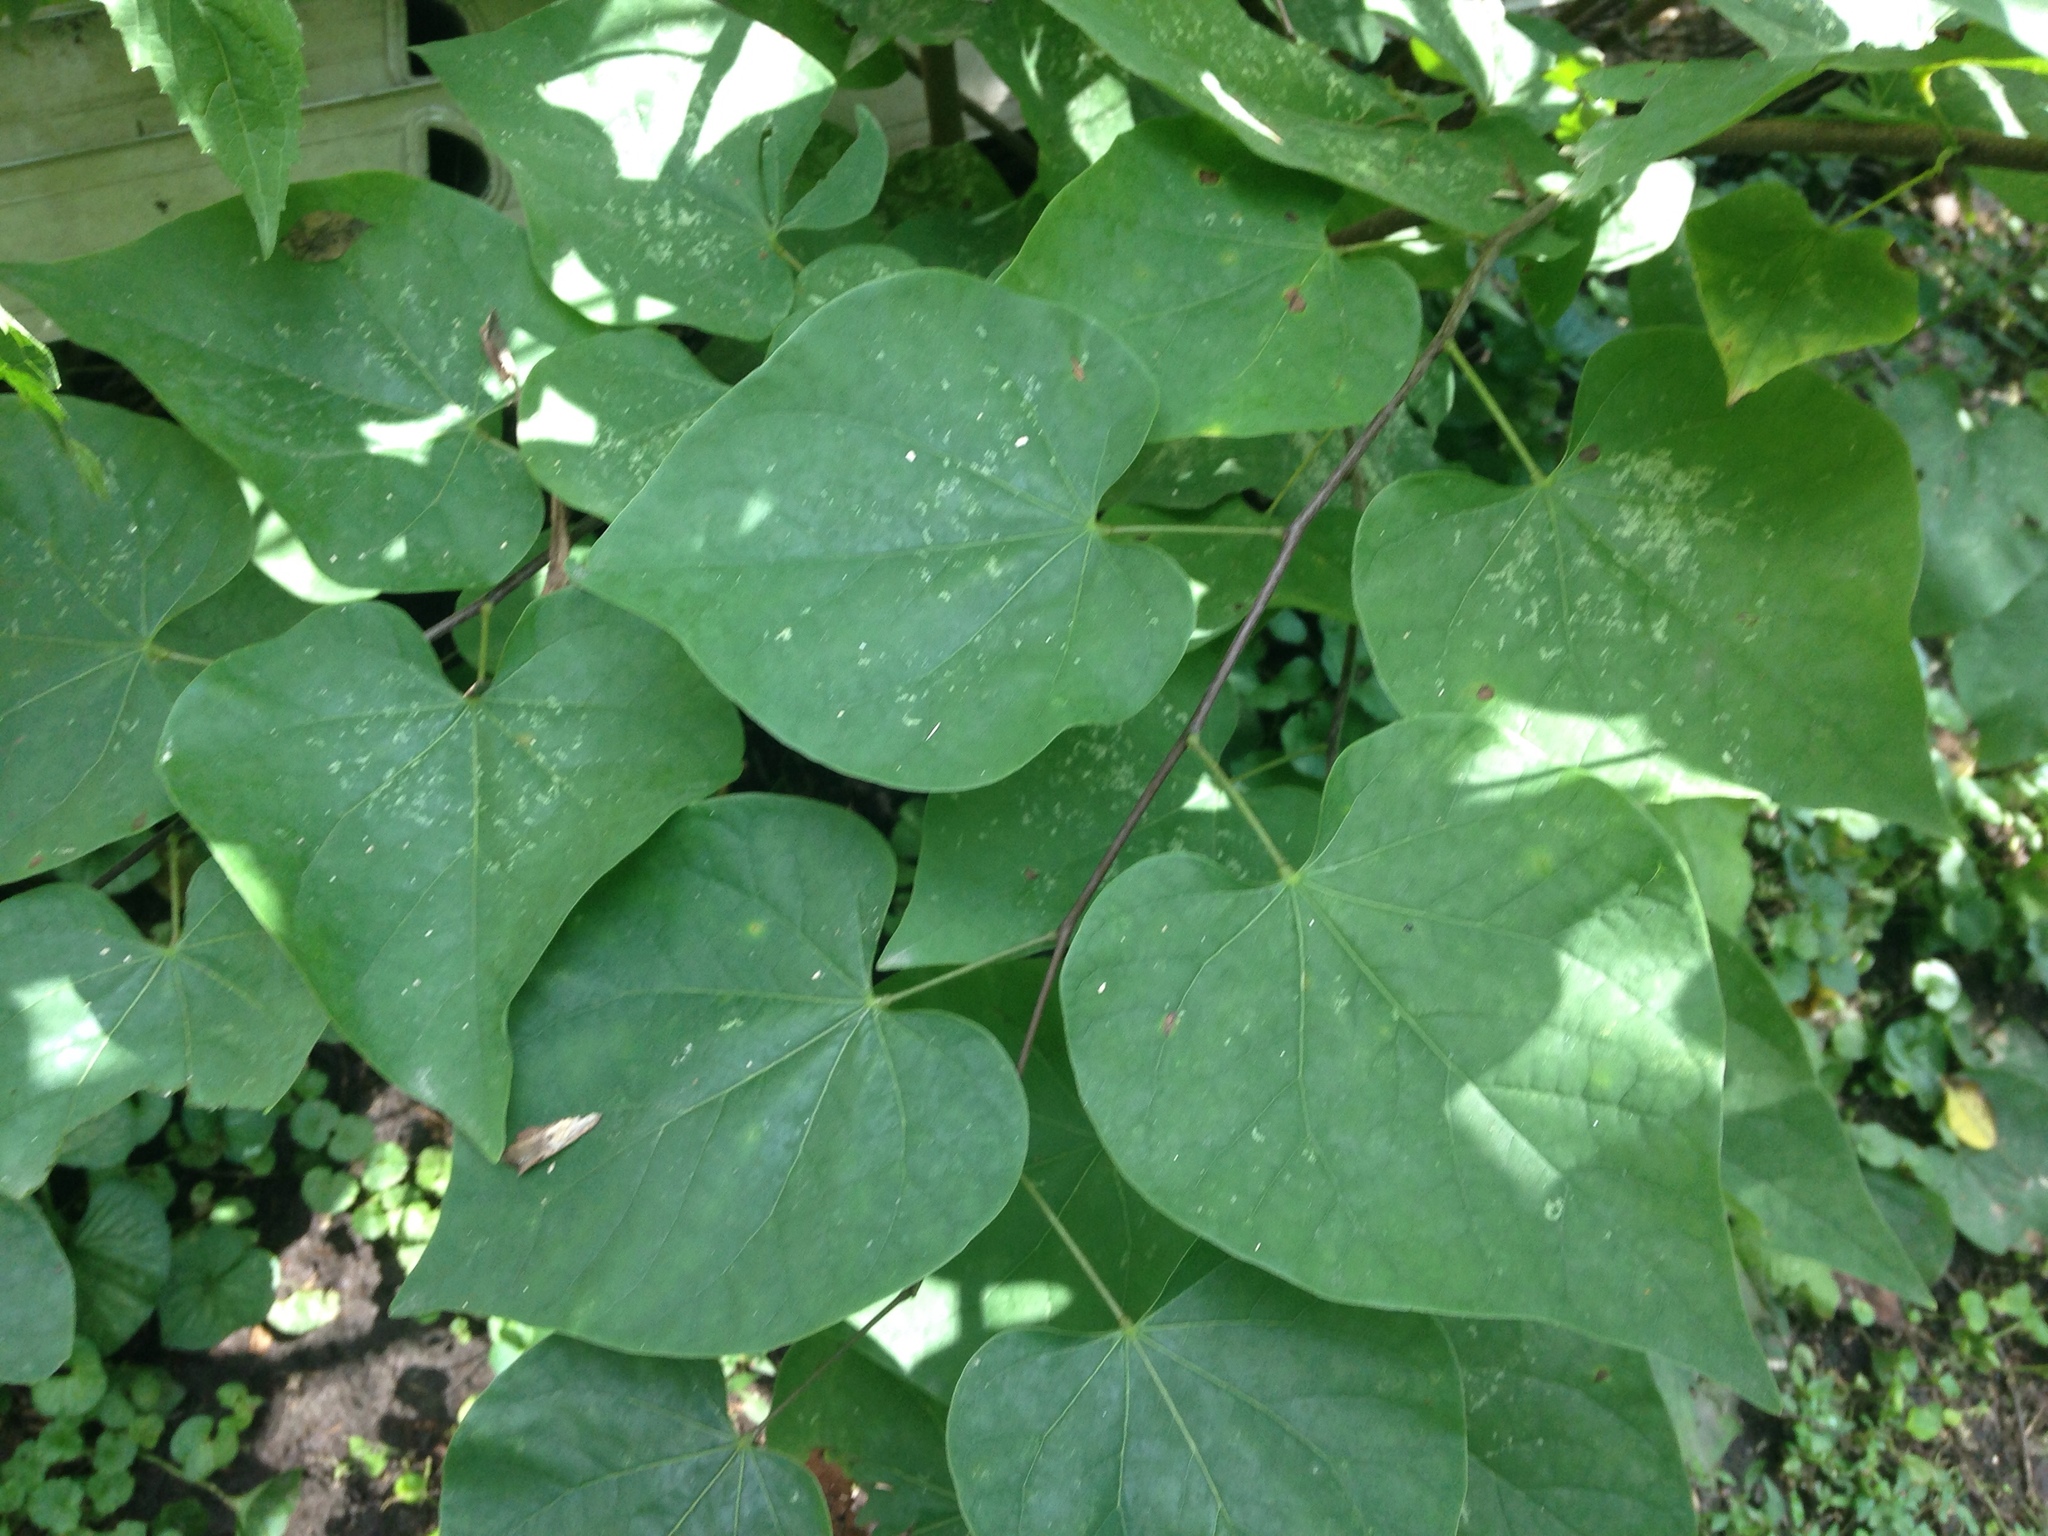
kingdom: Plantae
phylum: Tracheophyta
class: Magnoliopsida
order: Fabales
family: Fabaceae
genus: Cercis
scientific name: Cercis canadensis
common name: Eastern redbud
